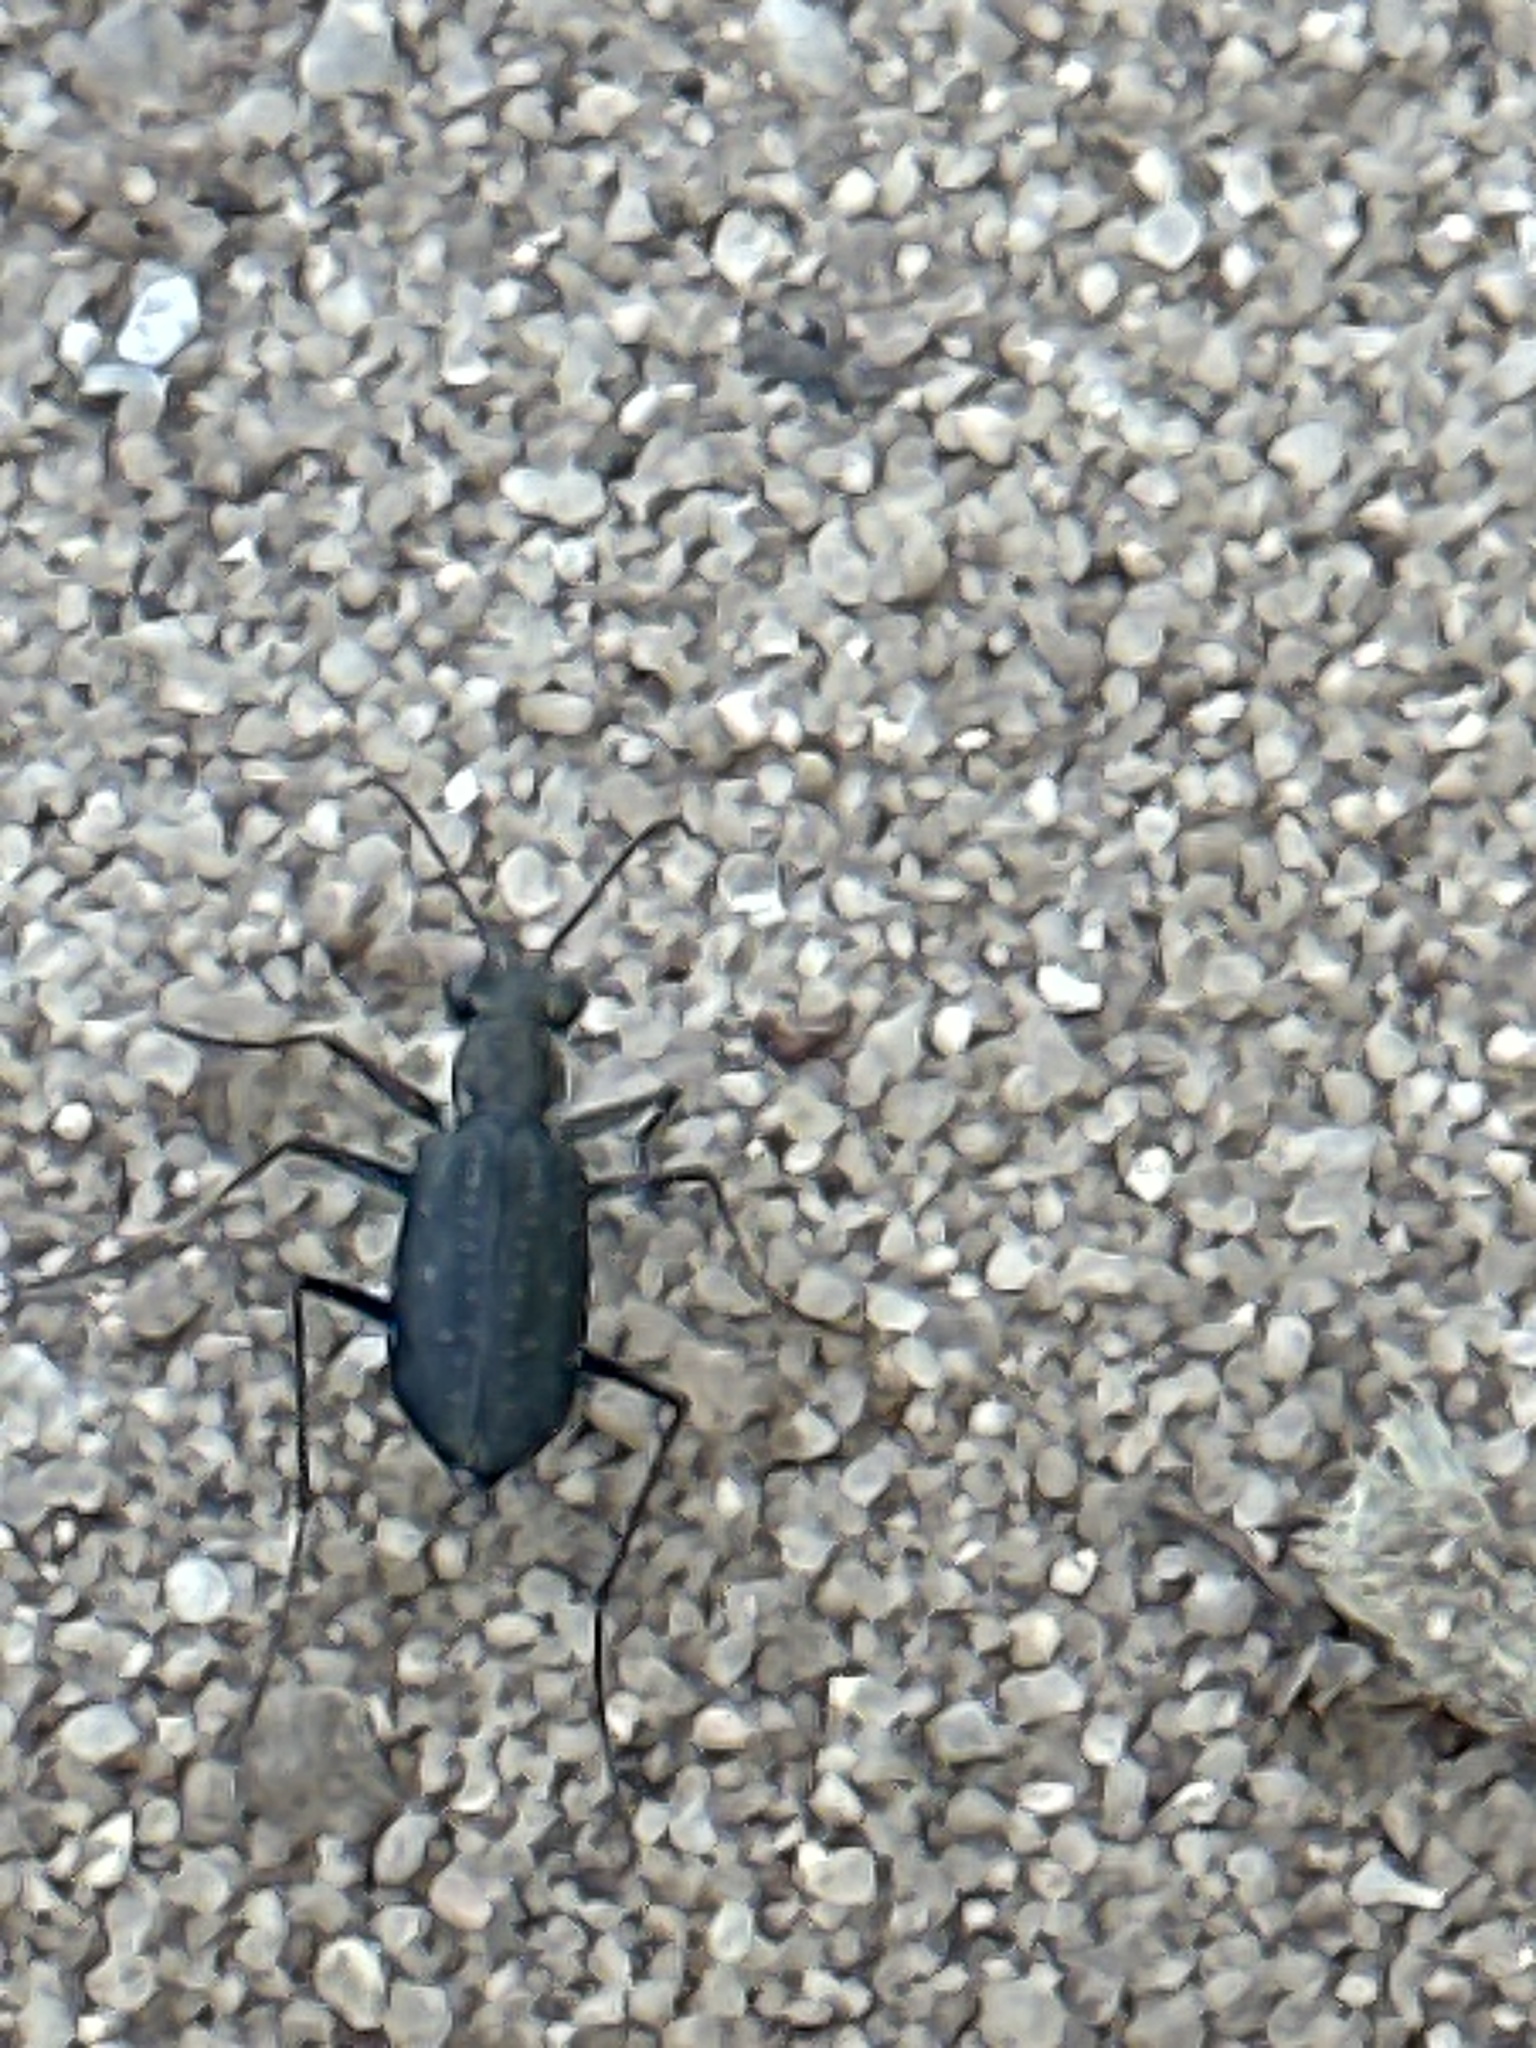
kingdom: Animalia
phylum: Arthropoda
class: Insecta
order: Coleoptera
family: Carabidae
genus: Cicindela
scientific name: Cicindela punctulata
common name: Punctured tiger beetle
